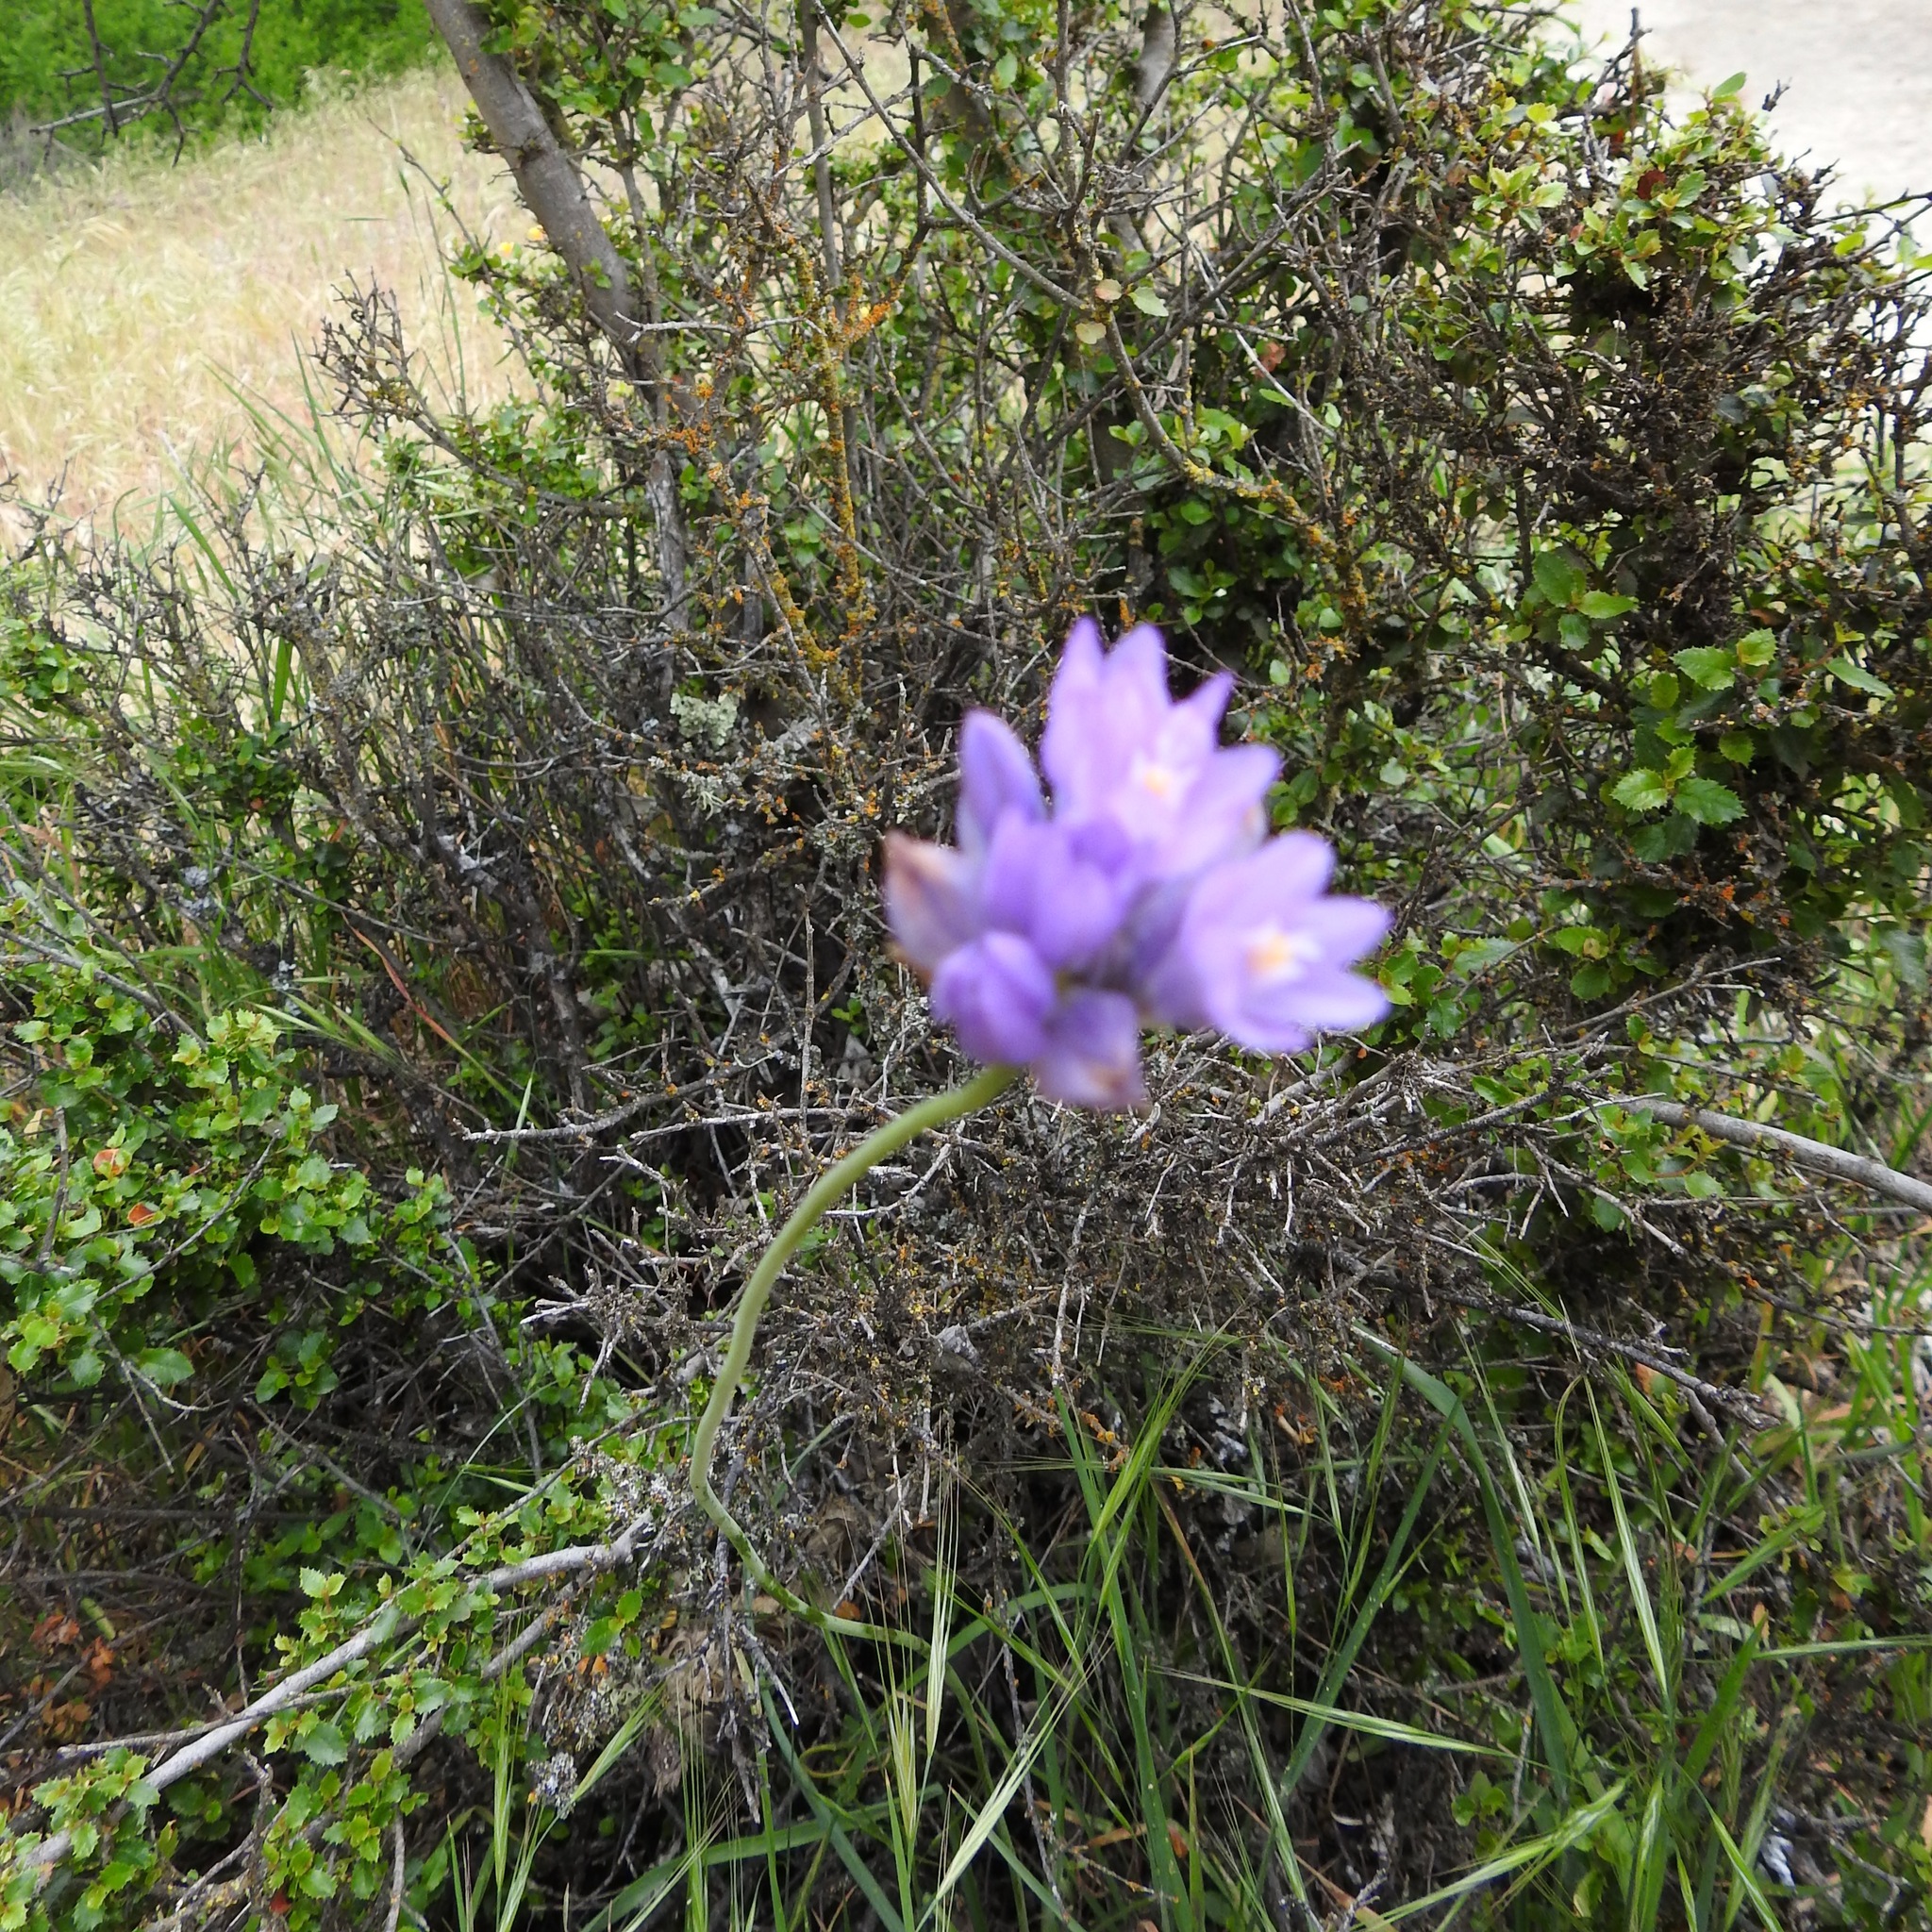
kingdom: Plantae
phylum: Tracheophyta
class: Liliopsida
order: Asparagales
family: Asparagaceae
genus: Dipterostemon
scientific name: Dipterostemon capitatus
